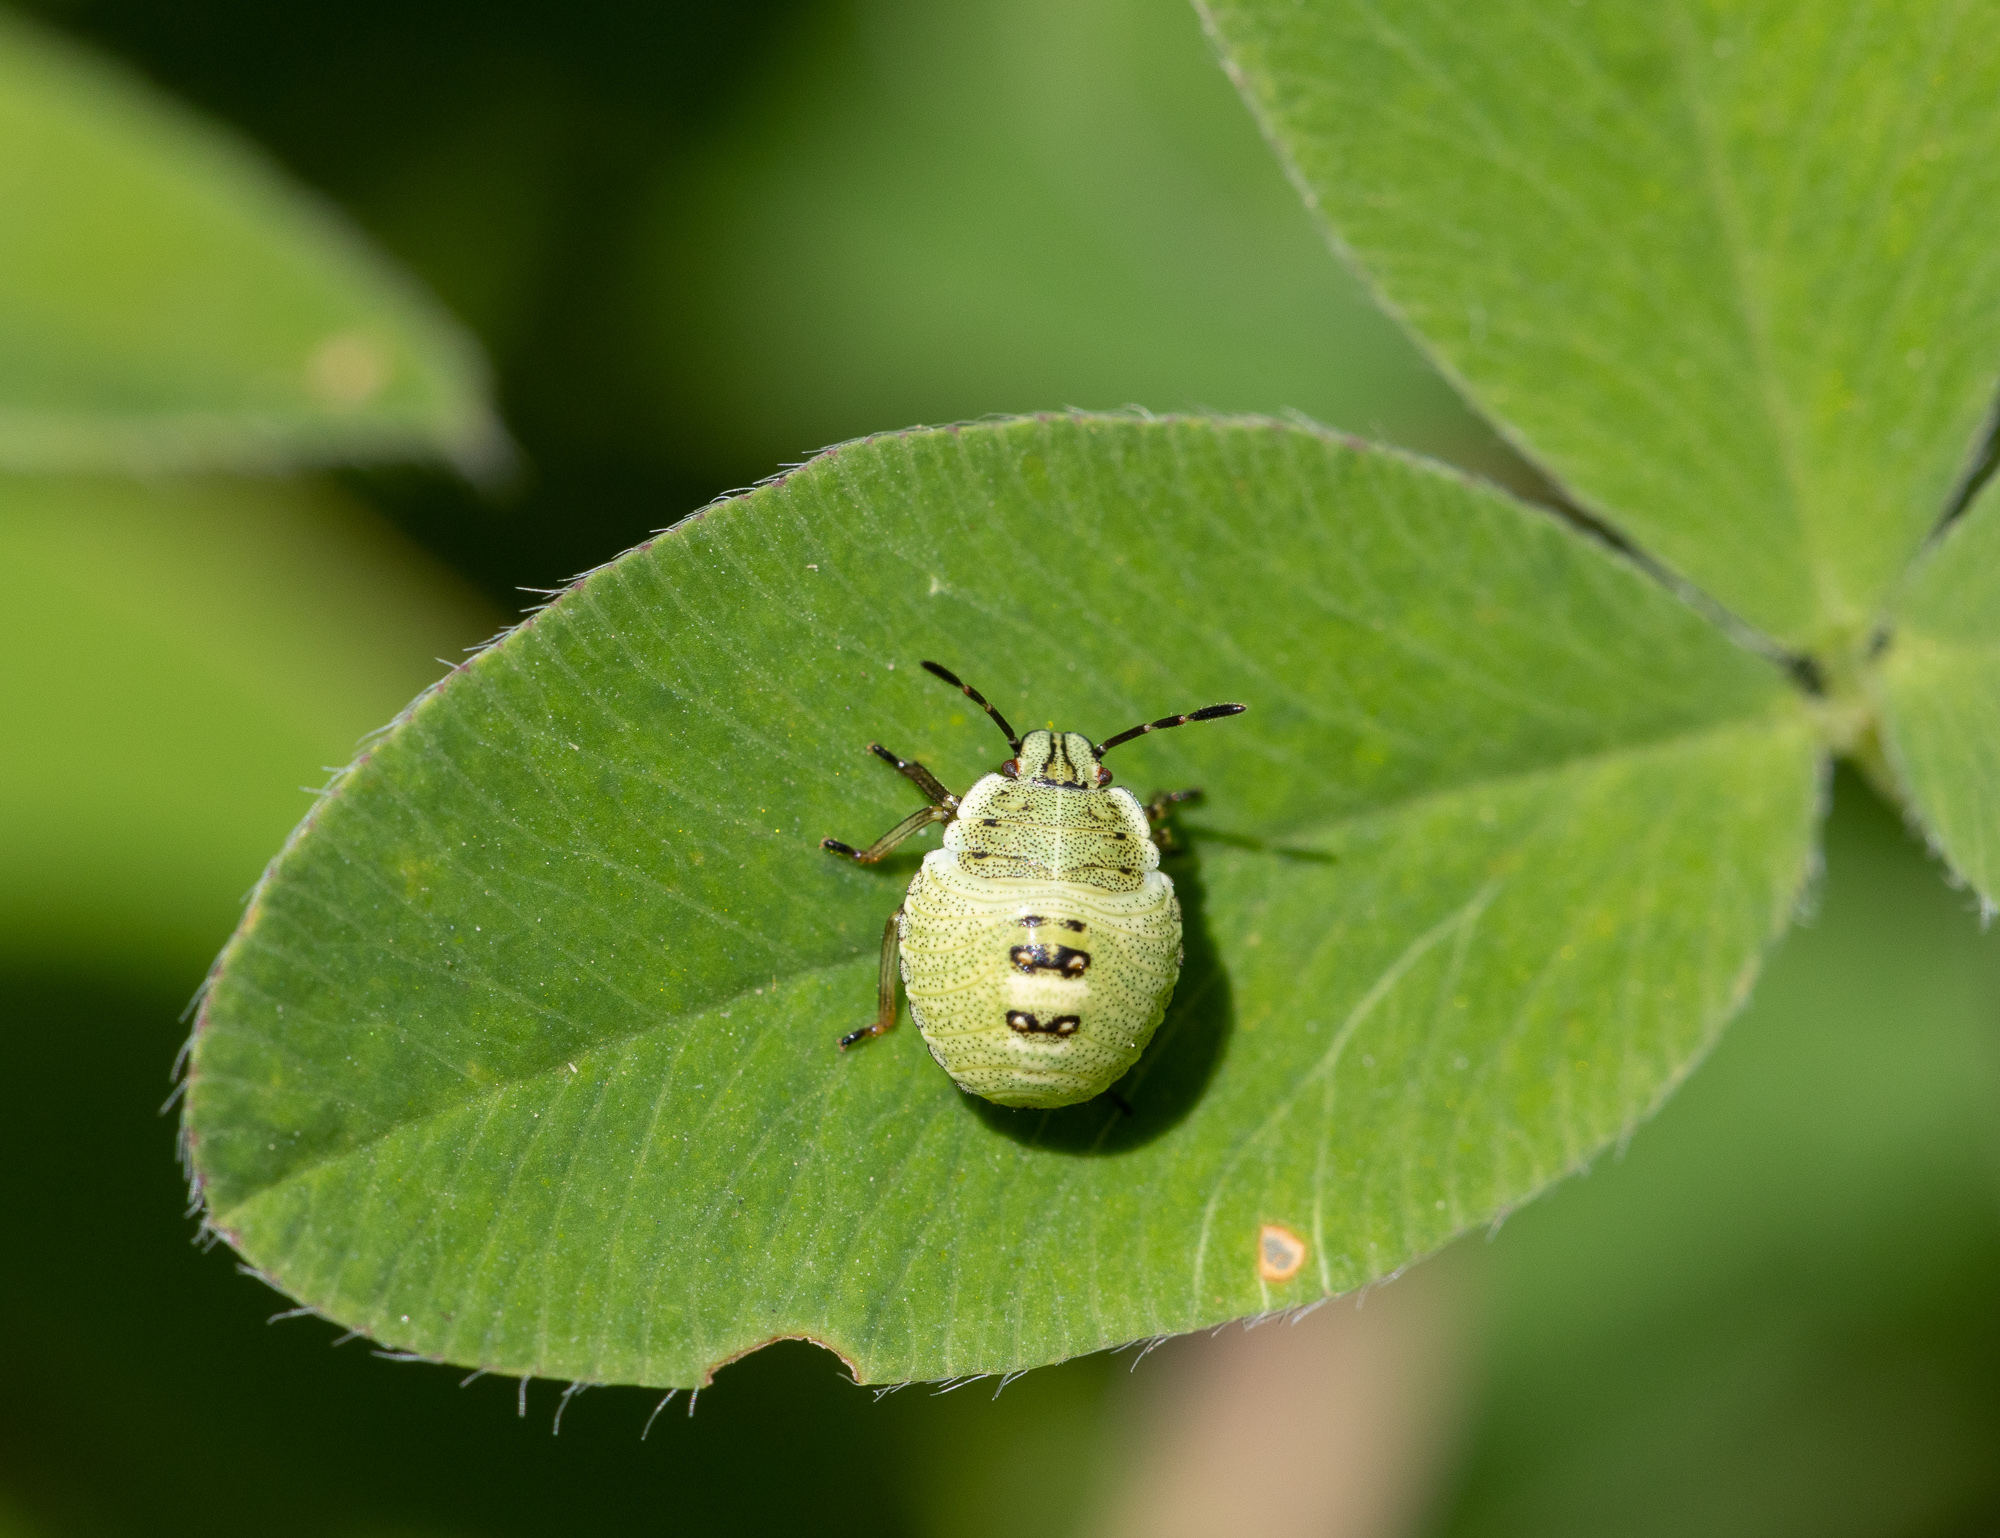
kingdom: Animalia
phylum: Arthropoda
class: Insecta
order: Hemiptera
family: Pentatomidae
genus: Palomena
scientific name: Palomena prasina
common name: Green shieldbug
